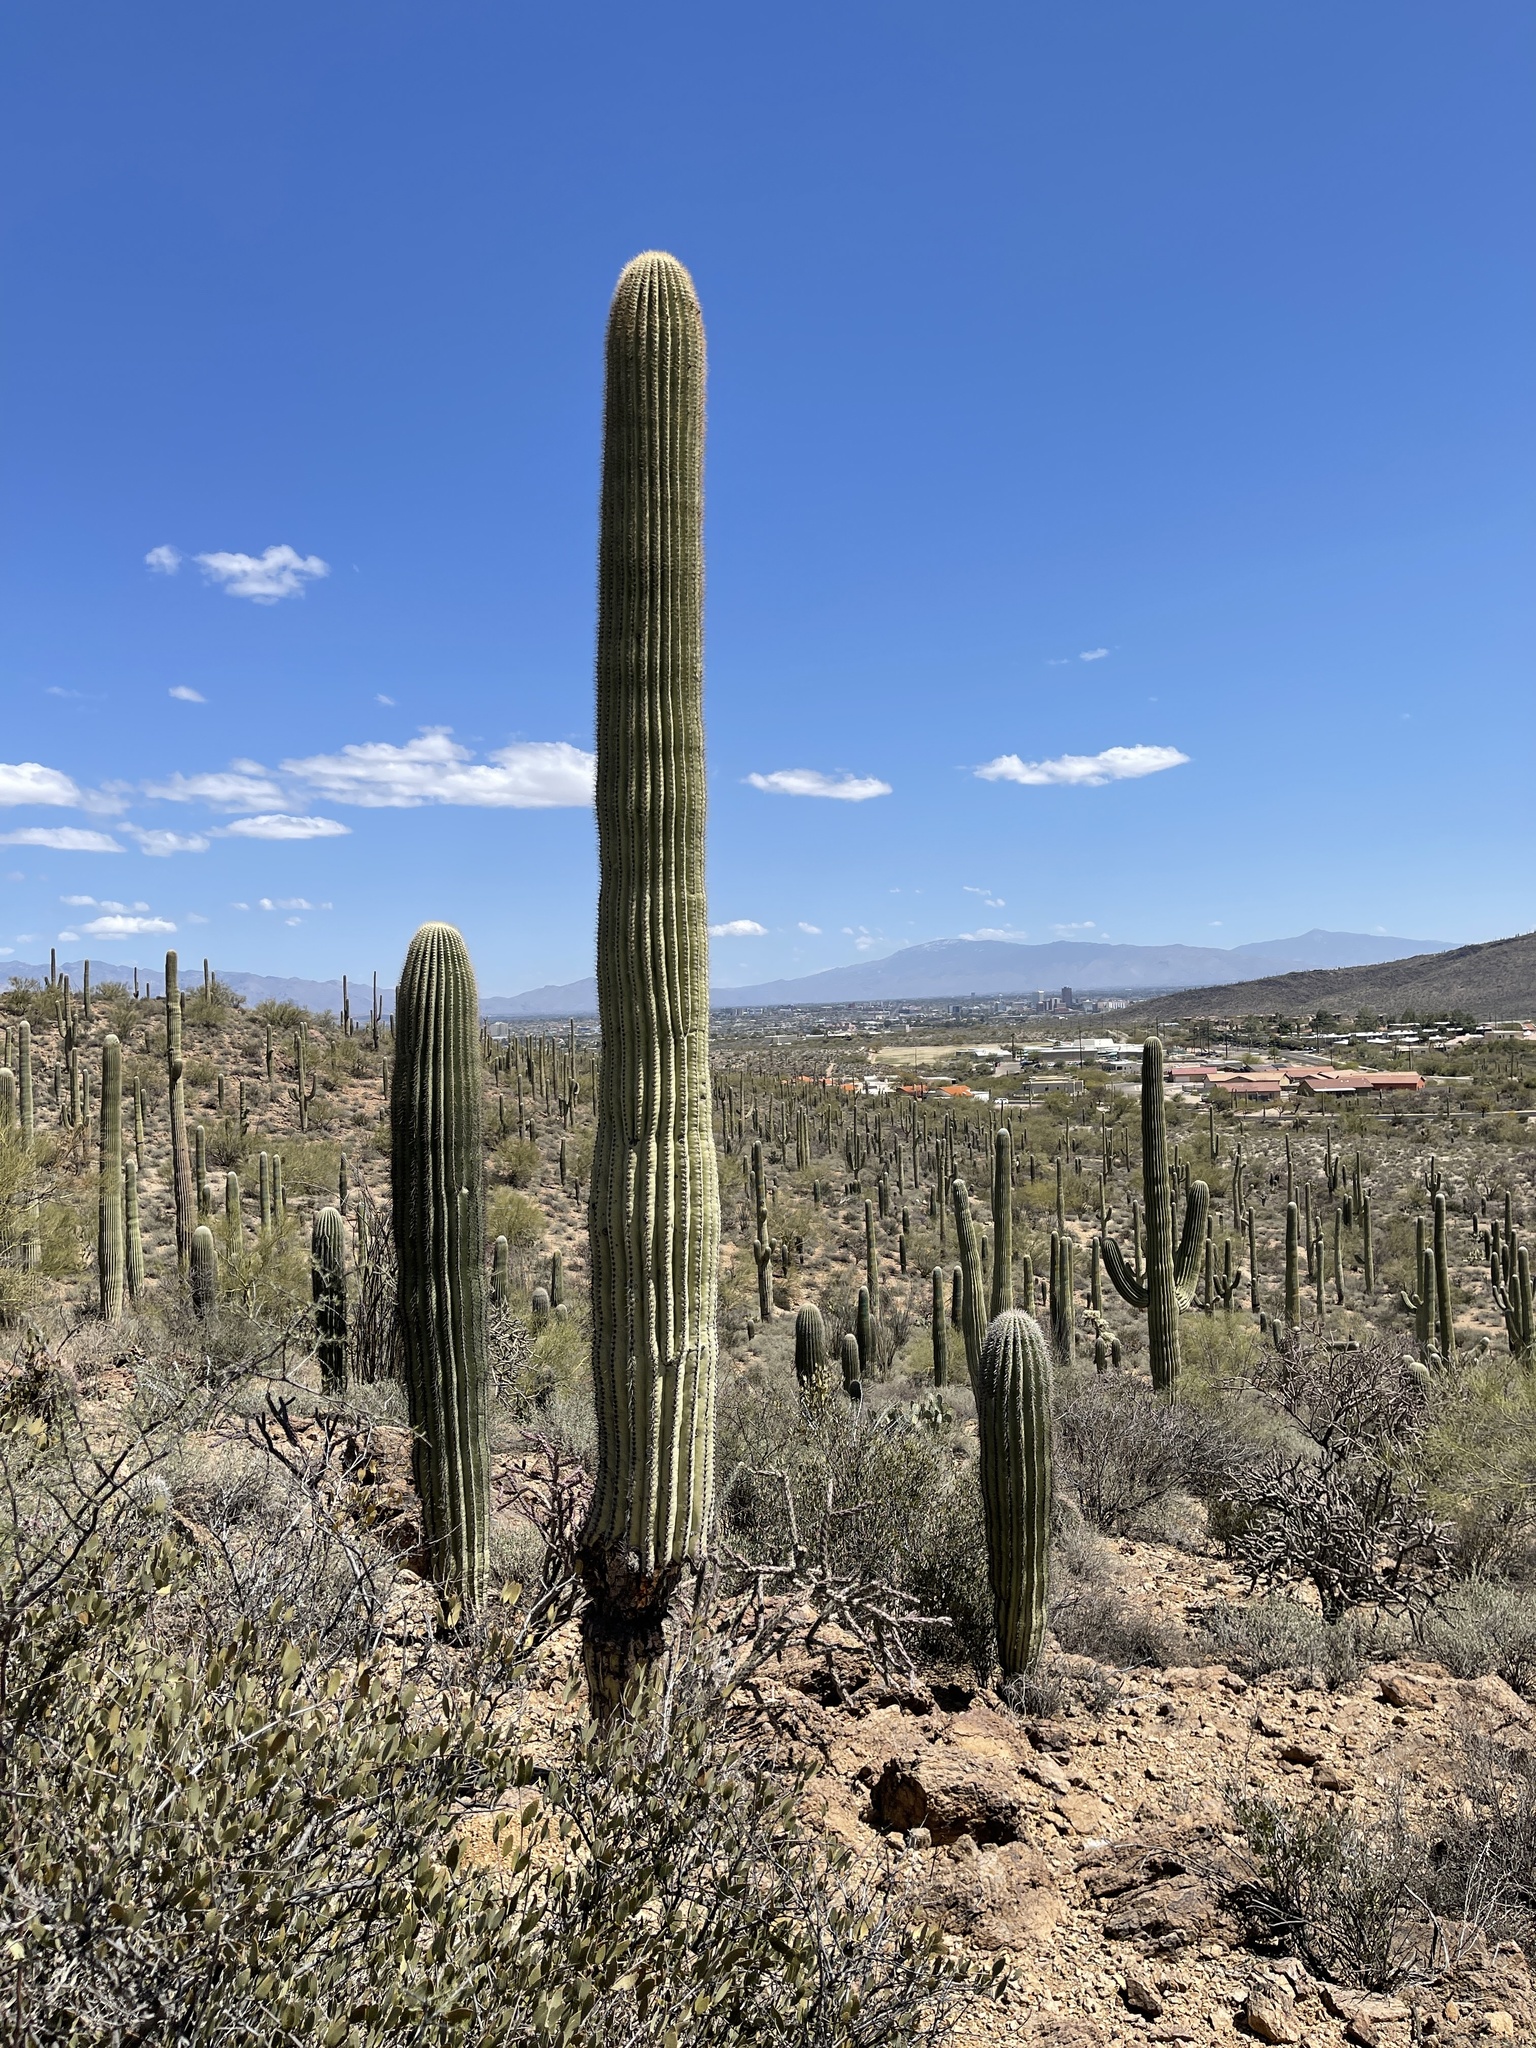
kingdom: Plantae
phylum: Tracheophyta
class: Magnoliopsida
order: Caryophyllales
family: Cactaceae
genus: Carnegiea
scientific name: Carnegiea gigantea
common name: Saguaro
